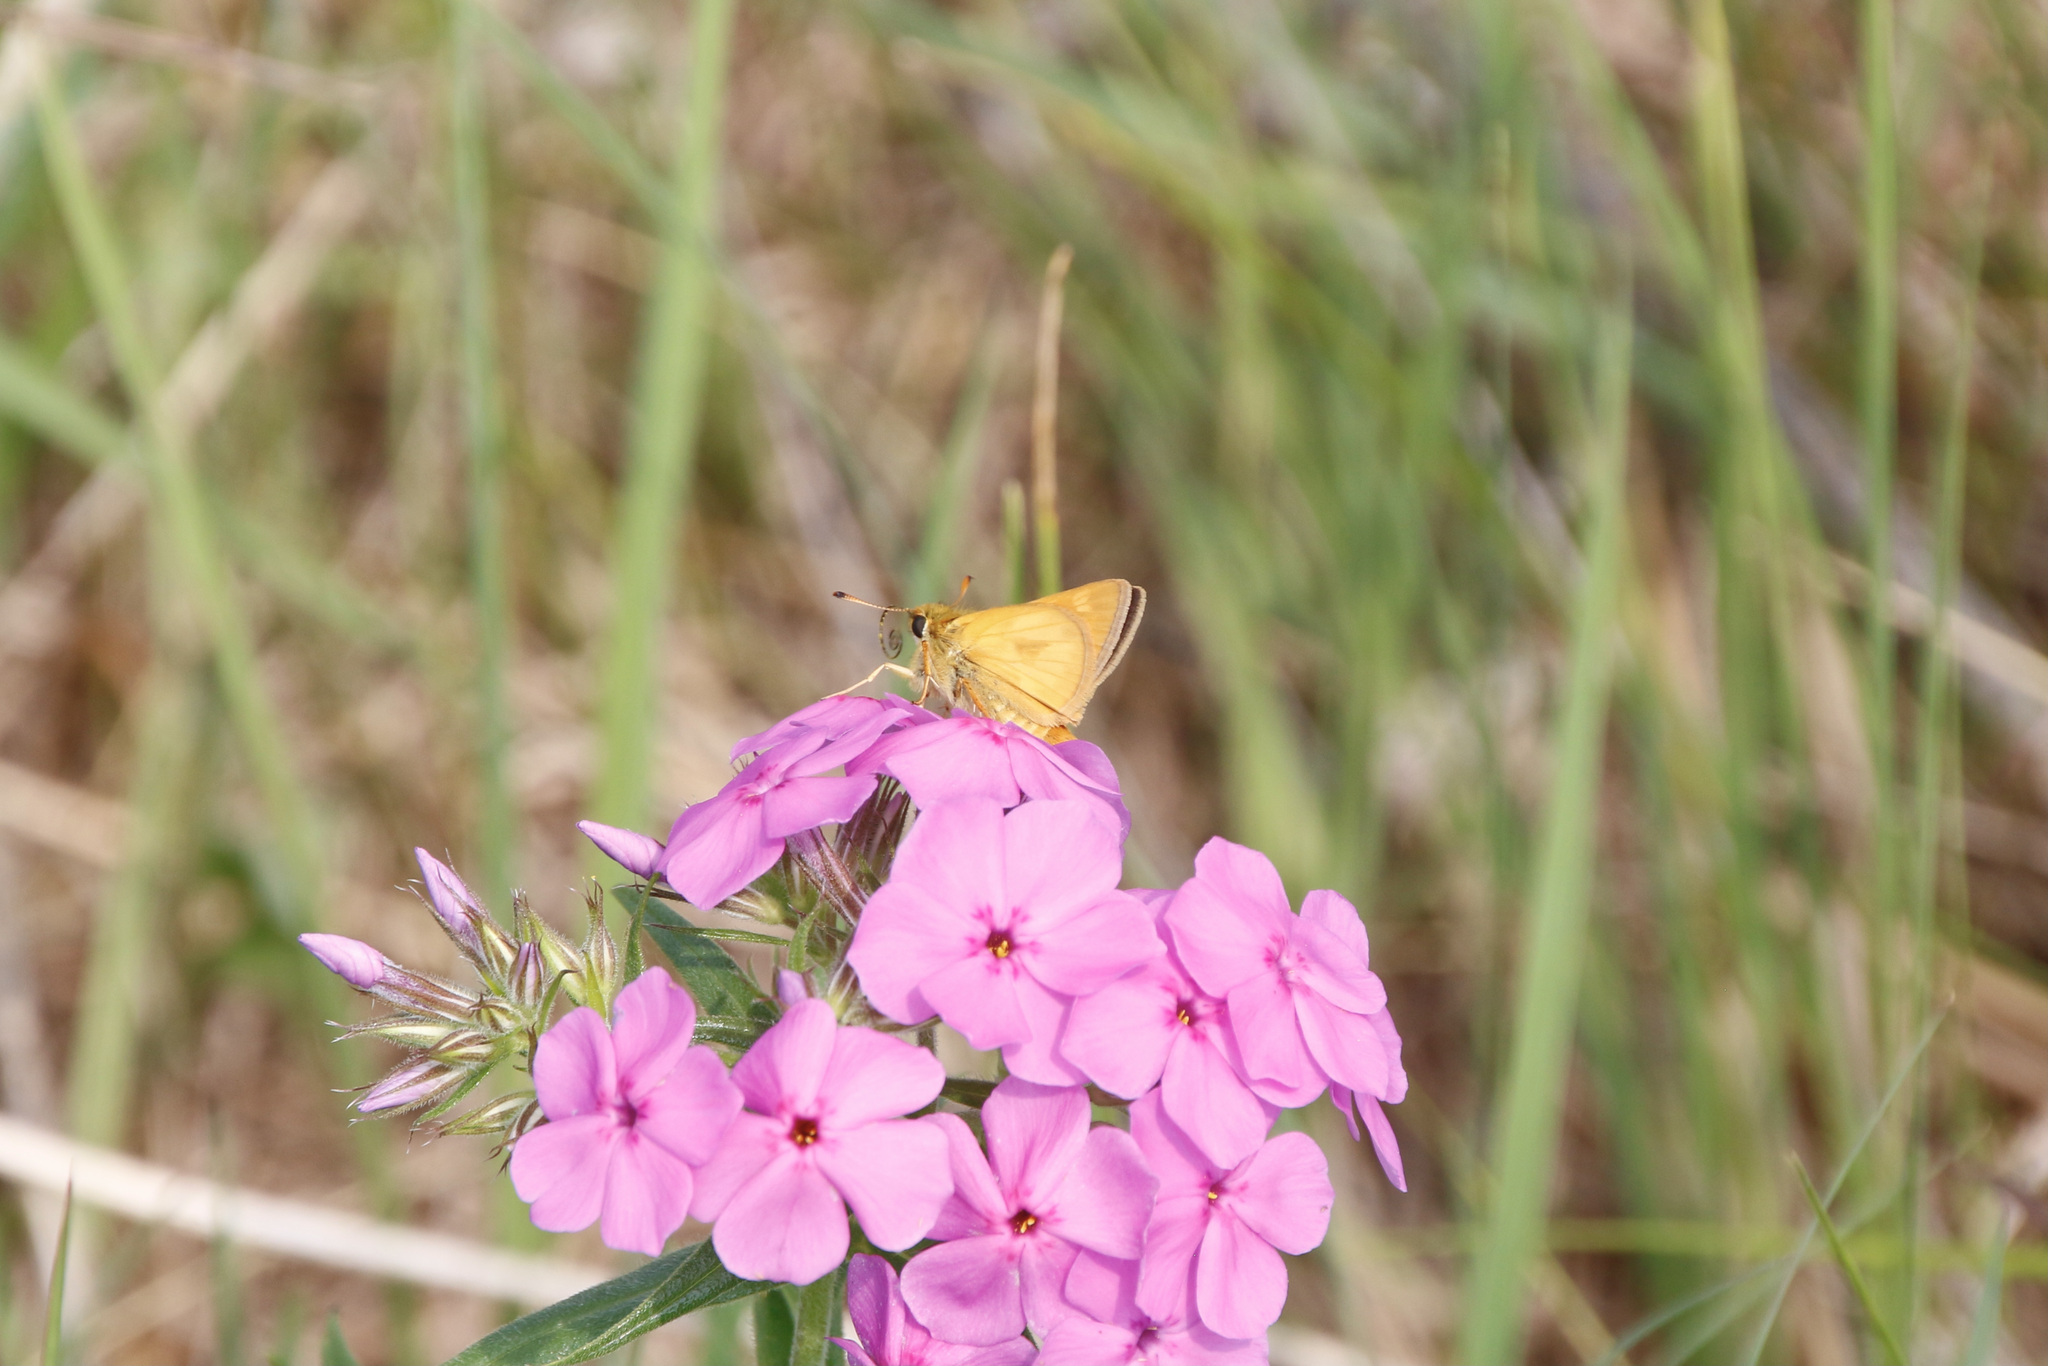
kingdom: Animalia
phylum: Arthropoda
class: Insecta
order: Lepidoptera
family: Hesperiidae
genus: Polites
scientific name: Polites mystic
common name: Long dash
